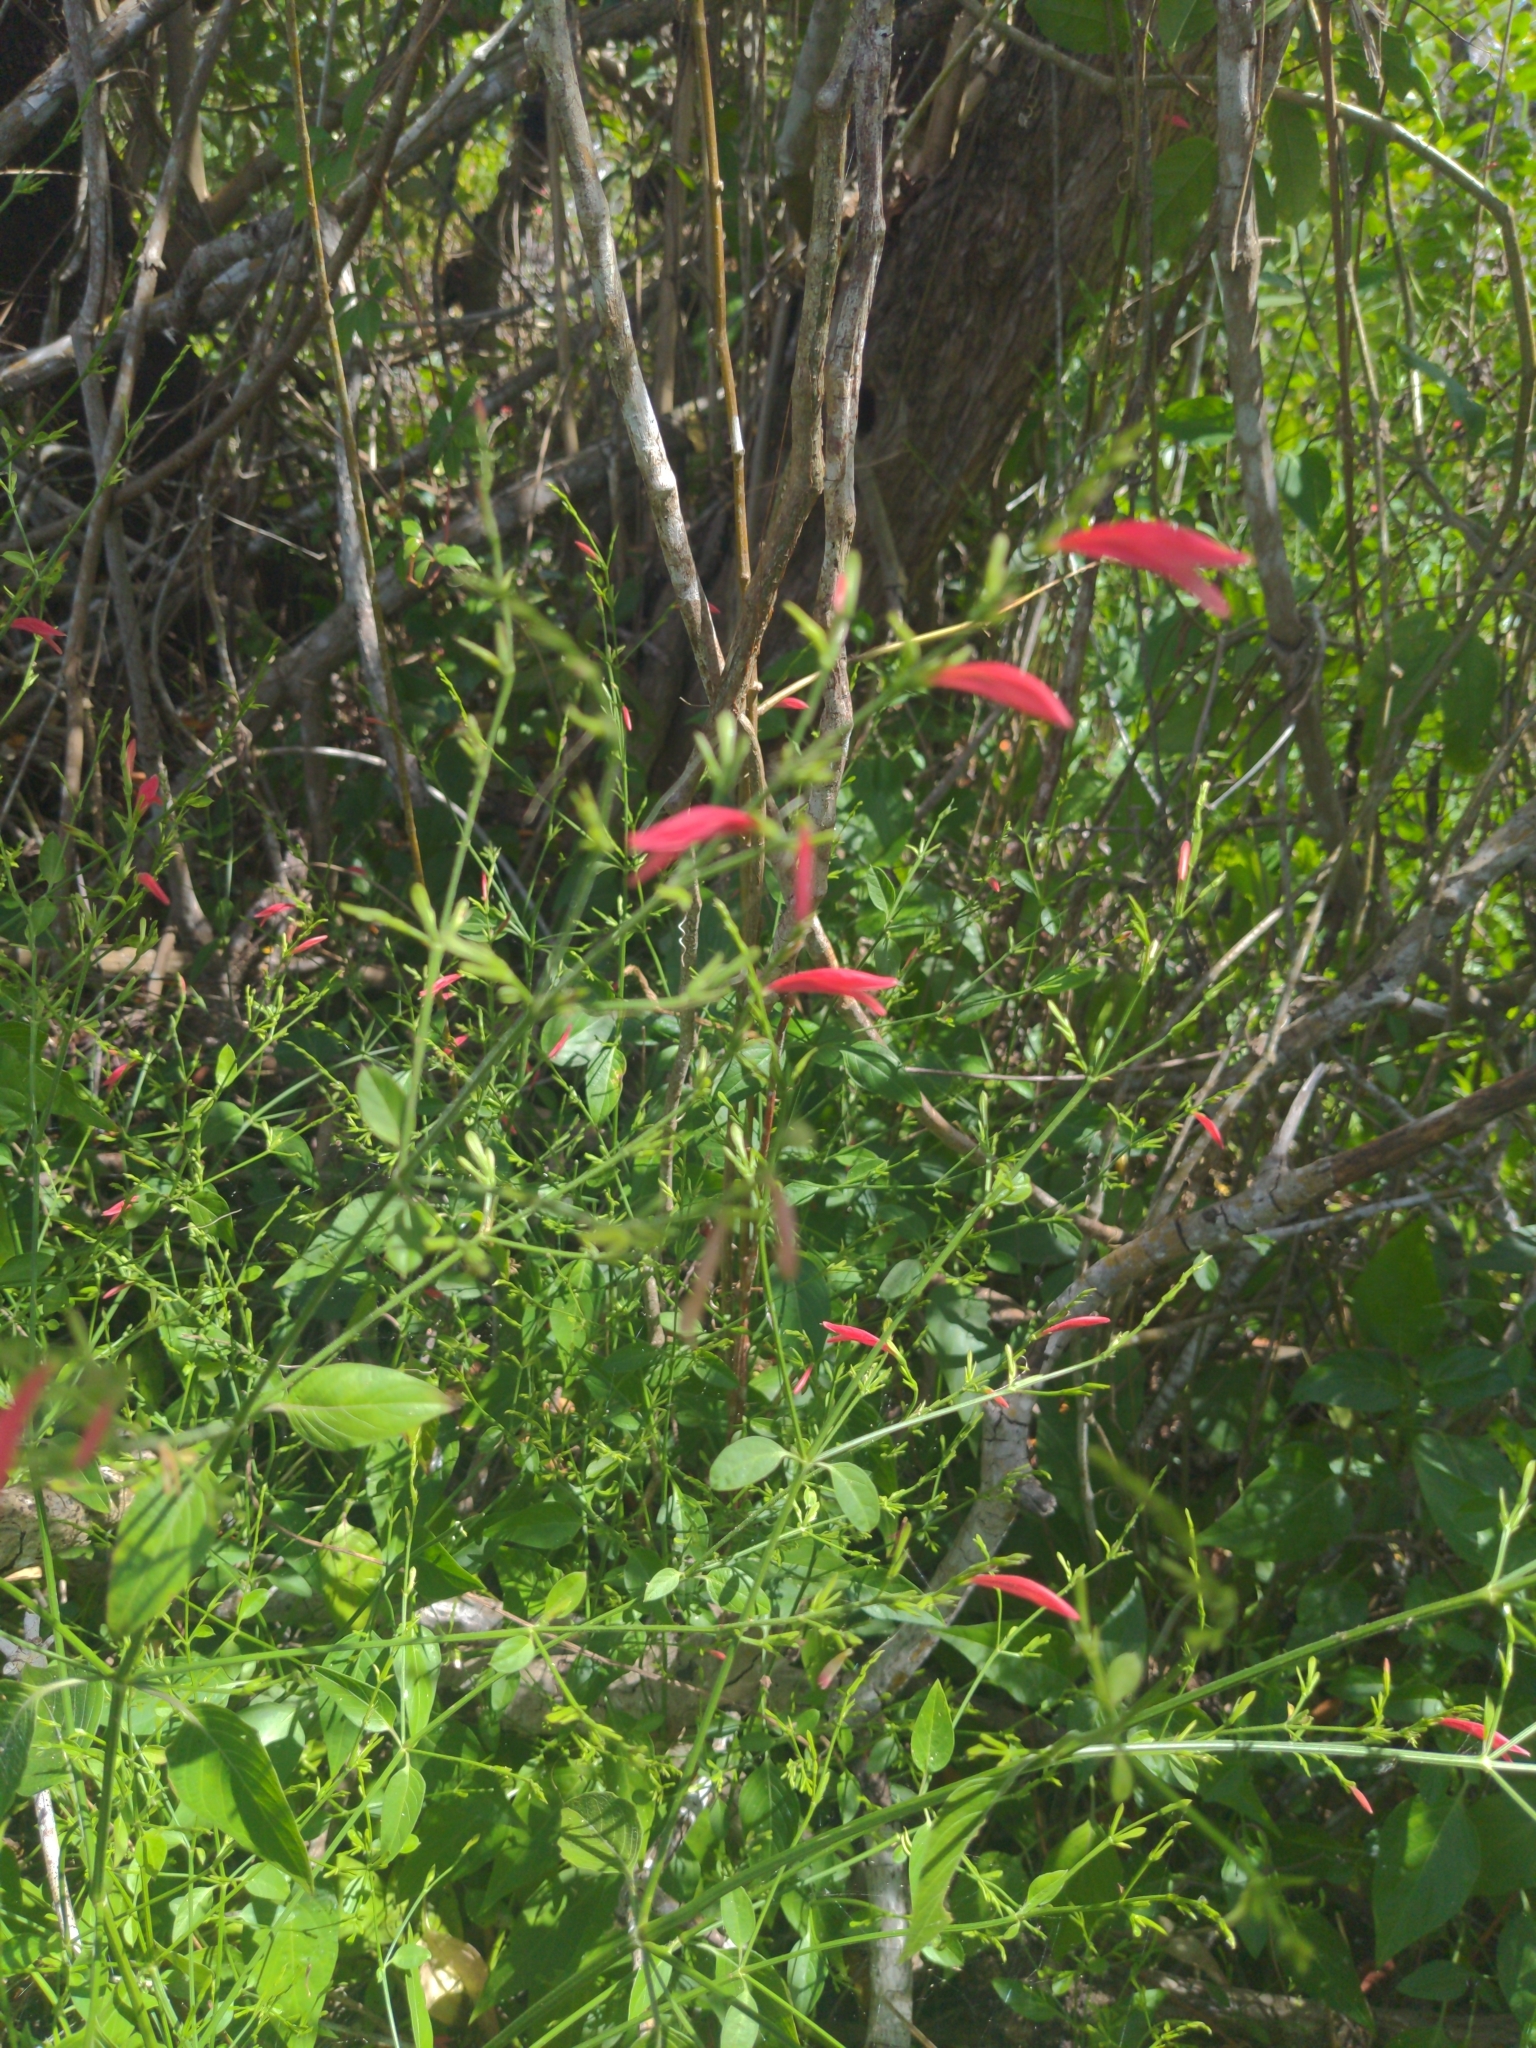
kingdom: Plantae
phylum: Tracheophyta
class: Magnoliopsida
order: Lamiales
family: Acanthaceae
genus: Dicliptera
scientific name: Dicliptera sexangularis
